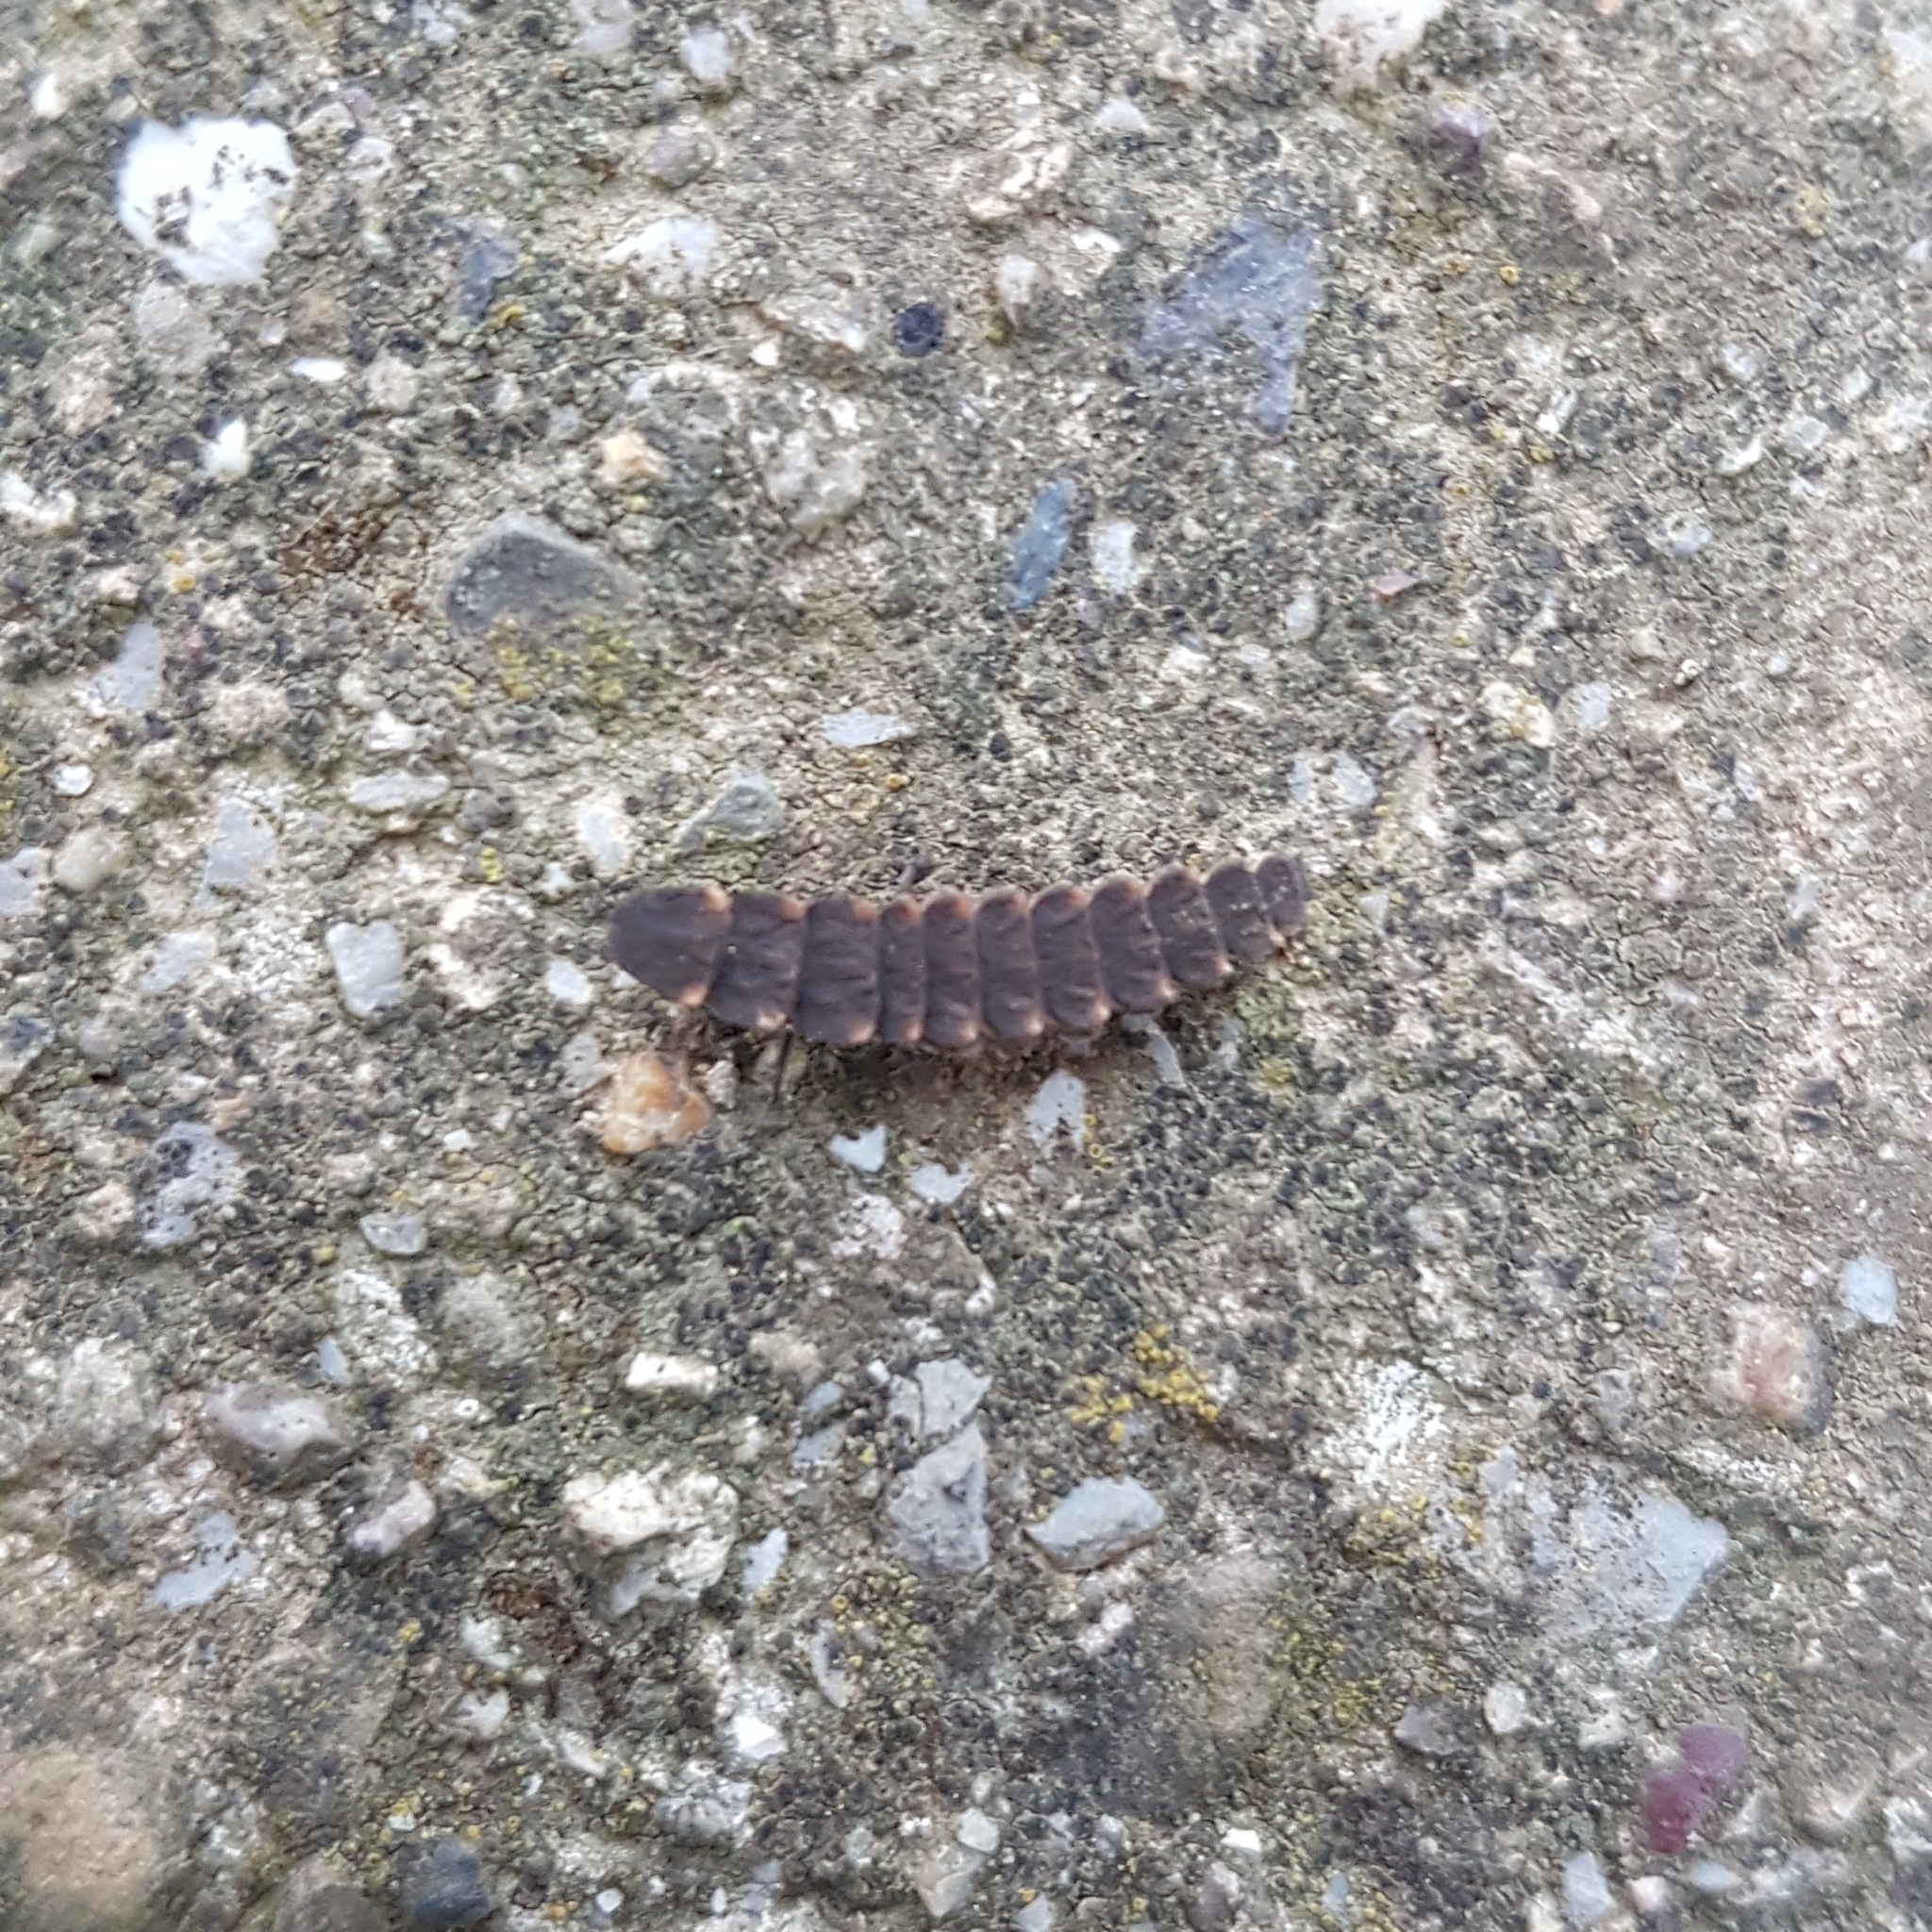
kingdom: Animalia
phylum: Arthropoda
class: Insecta
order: Coleoptera
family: Lampyridae
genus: Lampyris
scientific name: Lampyris noctiluca
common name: Glow-worm
